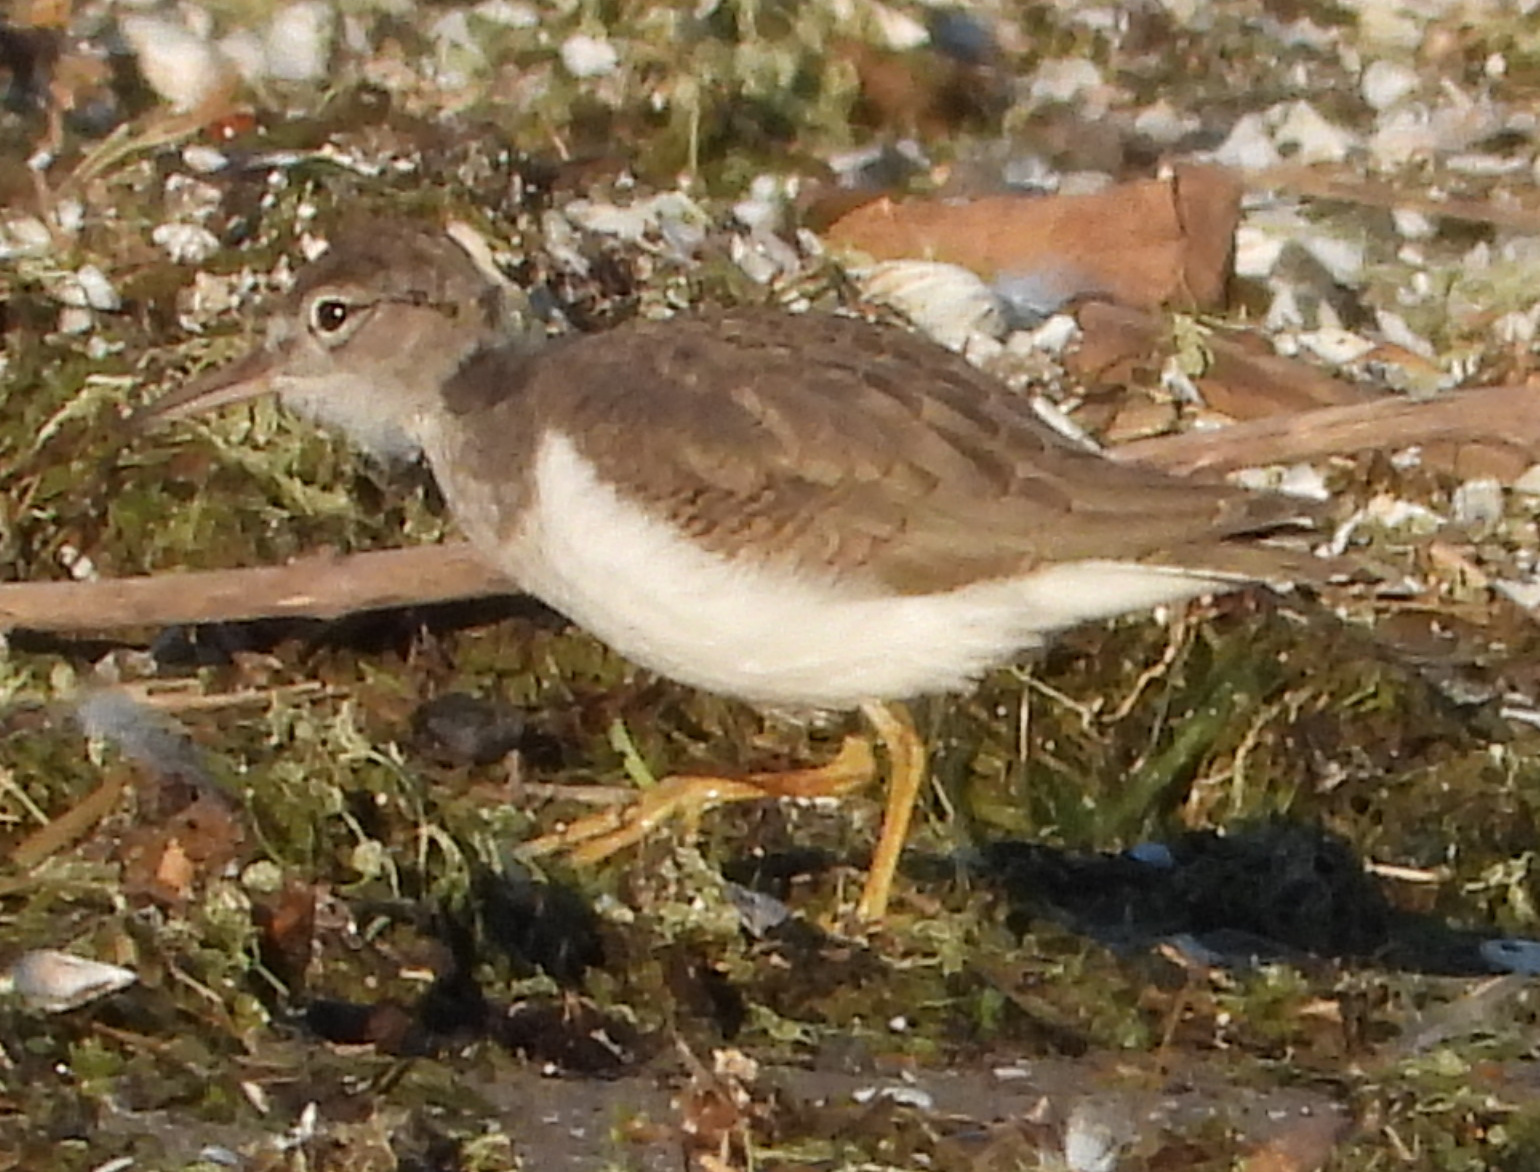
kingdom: Animalia
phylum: Chordata
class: Aves
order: Charadriiformes
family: Scolopacidae
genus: Actitis
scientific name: Actitis macularius
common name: Spotted sandpiper
